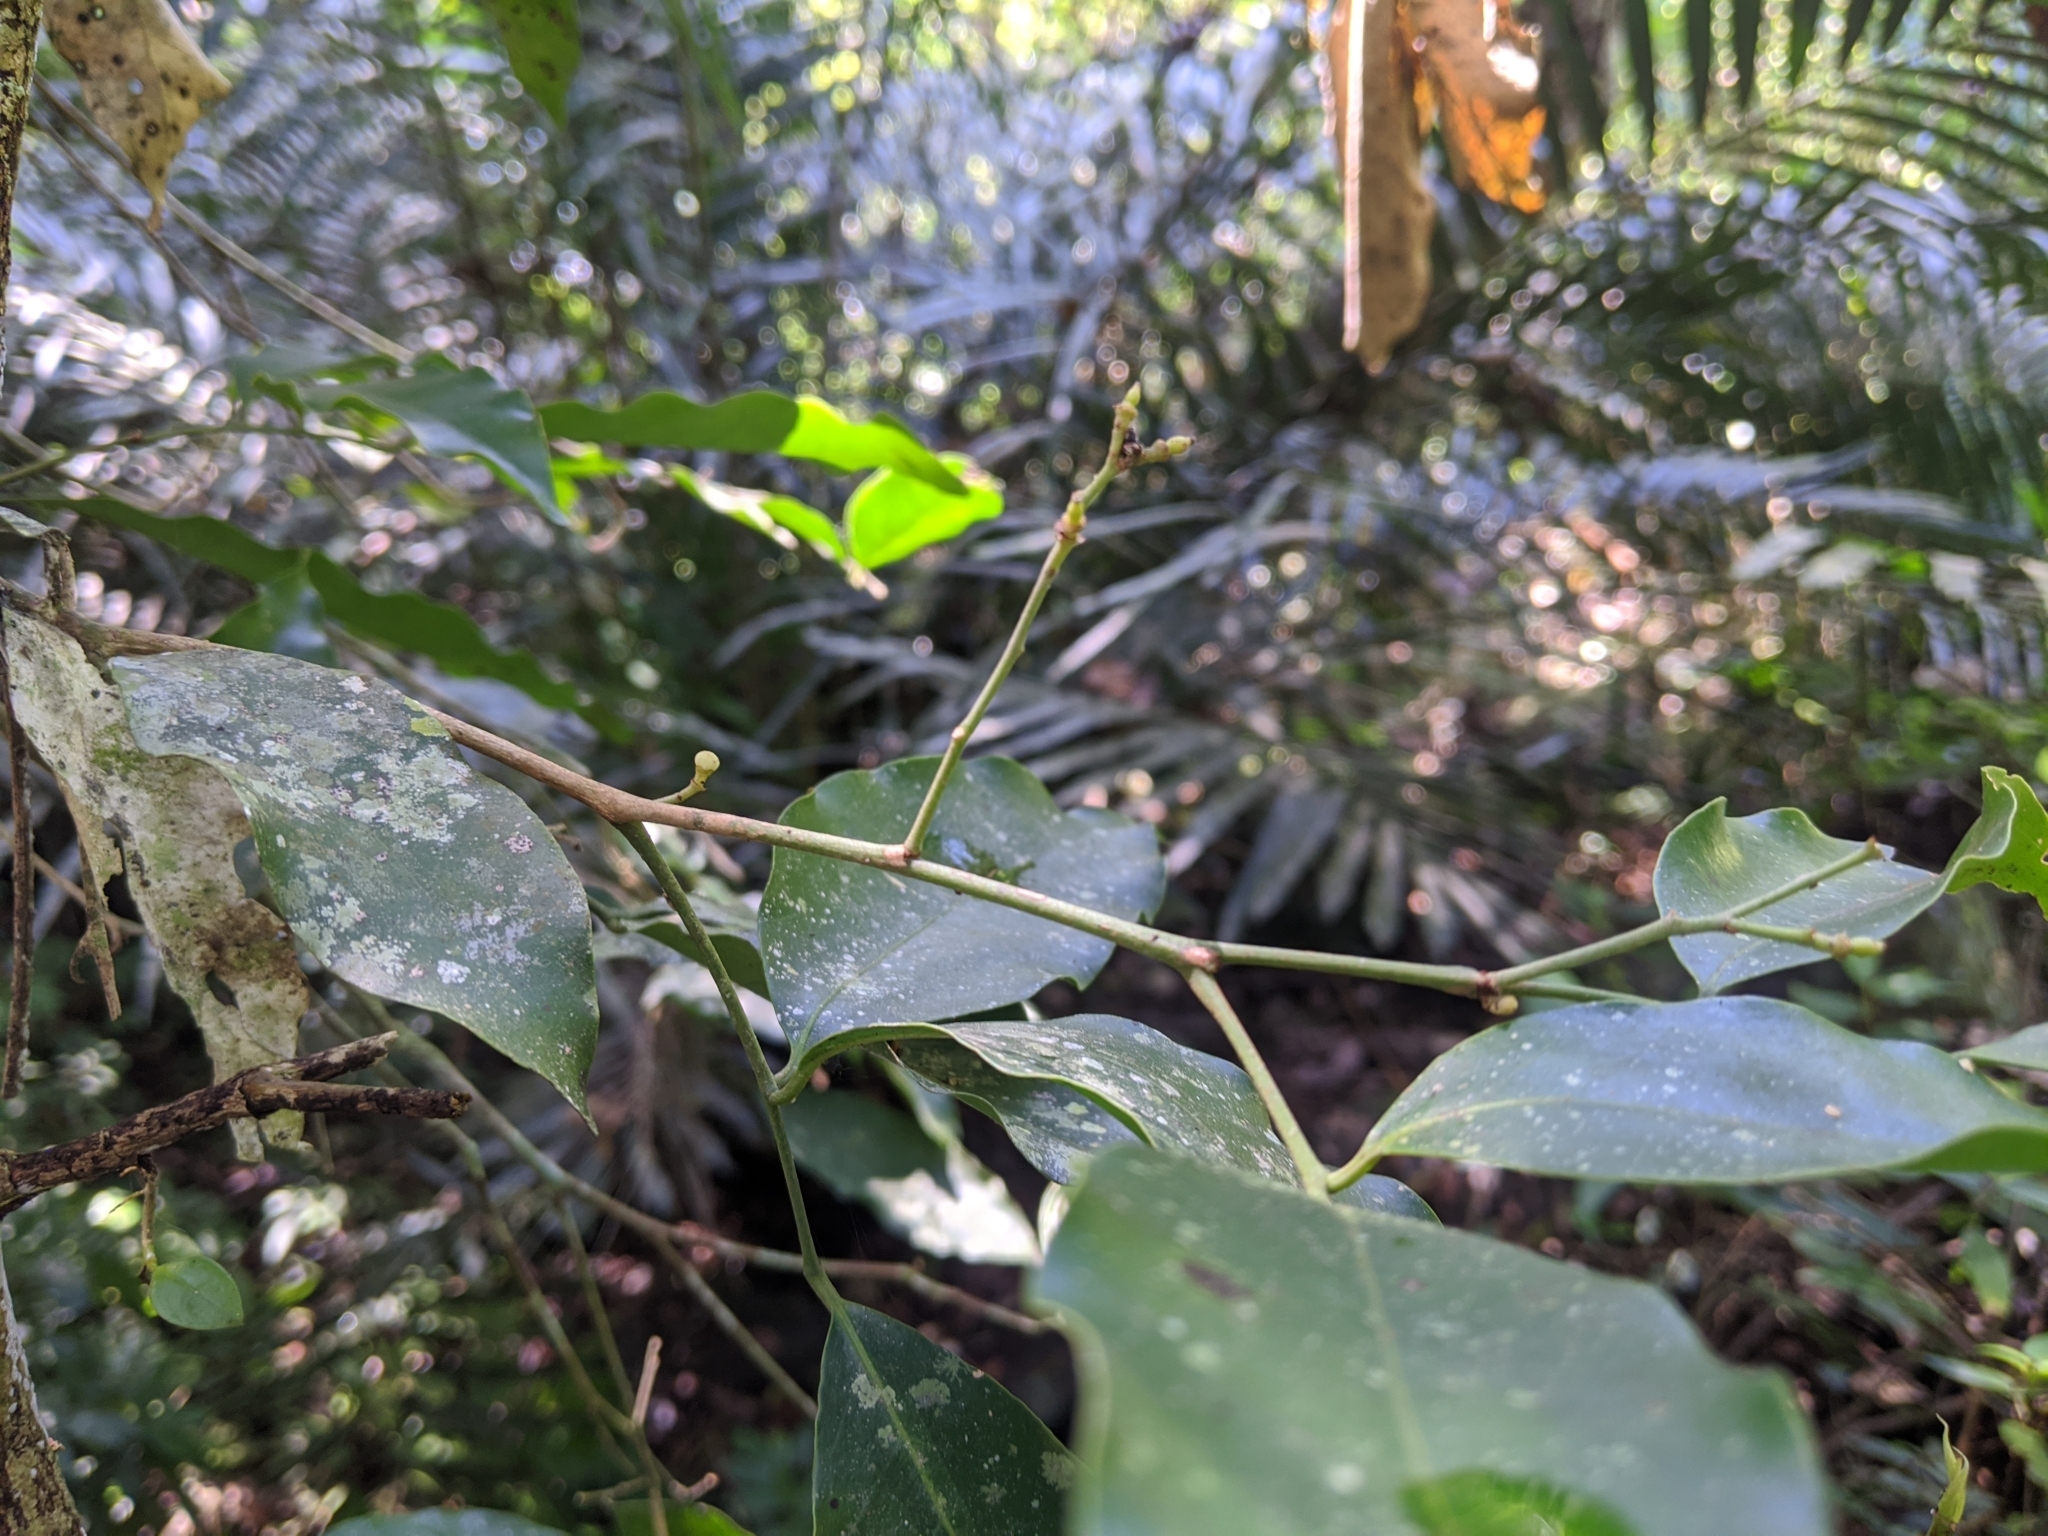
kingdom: Plantae
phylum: Tracheophyta
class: Magnoliopsida
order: Sapindales
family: Rutaceae
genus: Glycosmis
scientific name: Glycosmis parviflora
